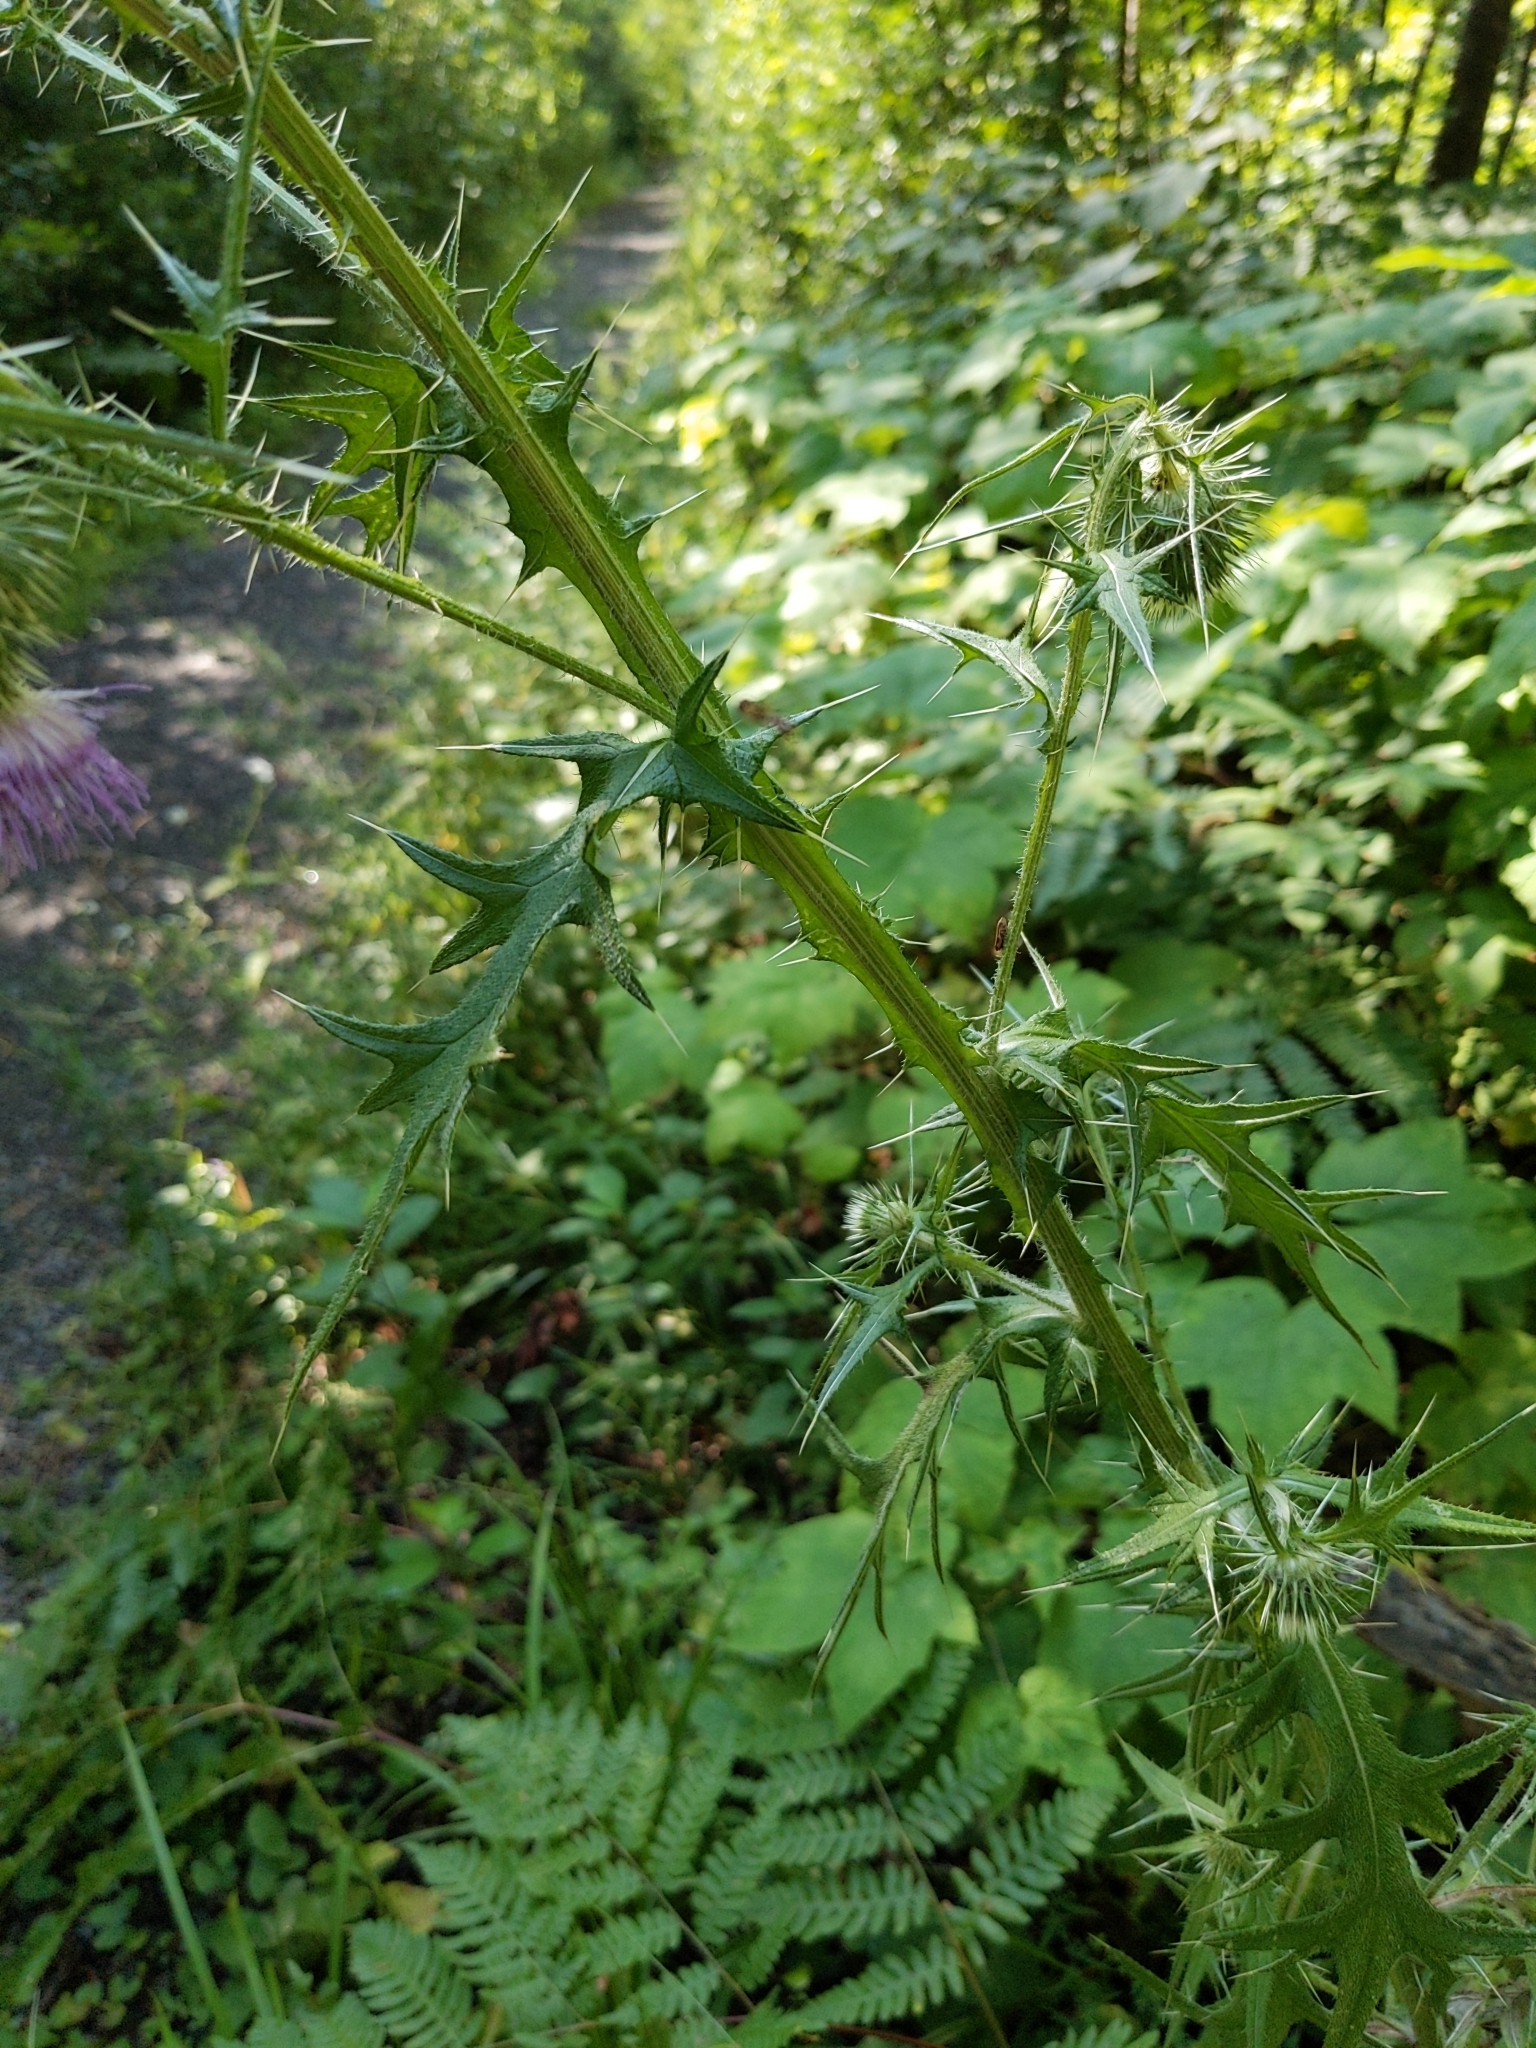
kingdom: Plantae
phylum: Tracheophyta
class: Magnoliopsida
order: Asterales
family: Asteraceae
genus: Cirsium
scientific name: Cirsium vulgare
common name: Bull thistle
